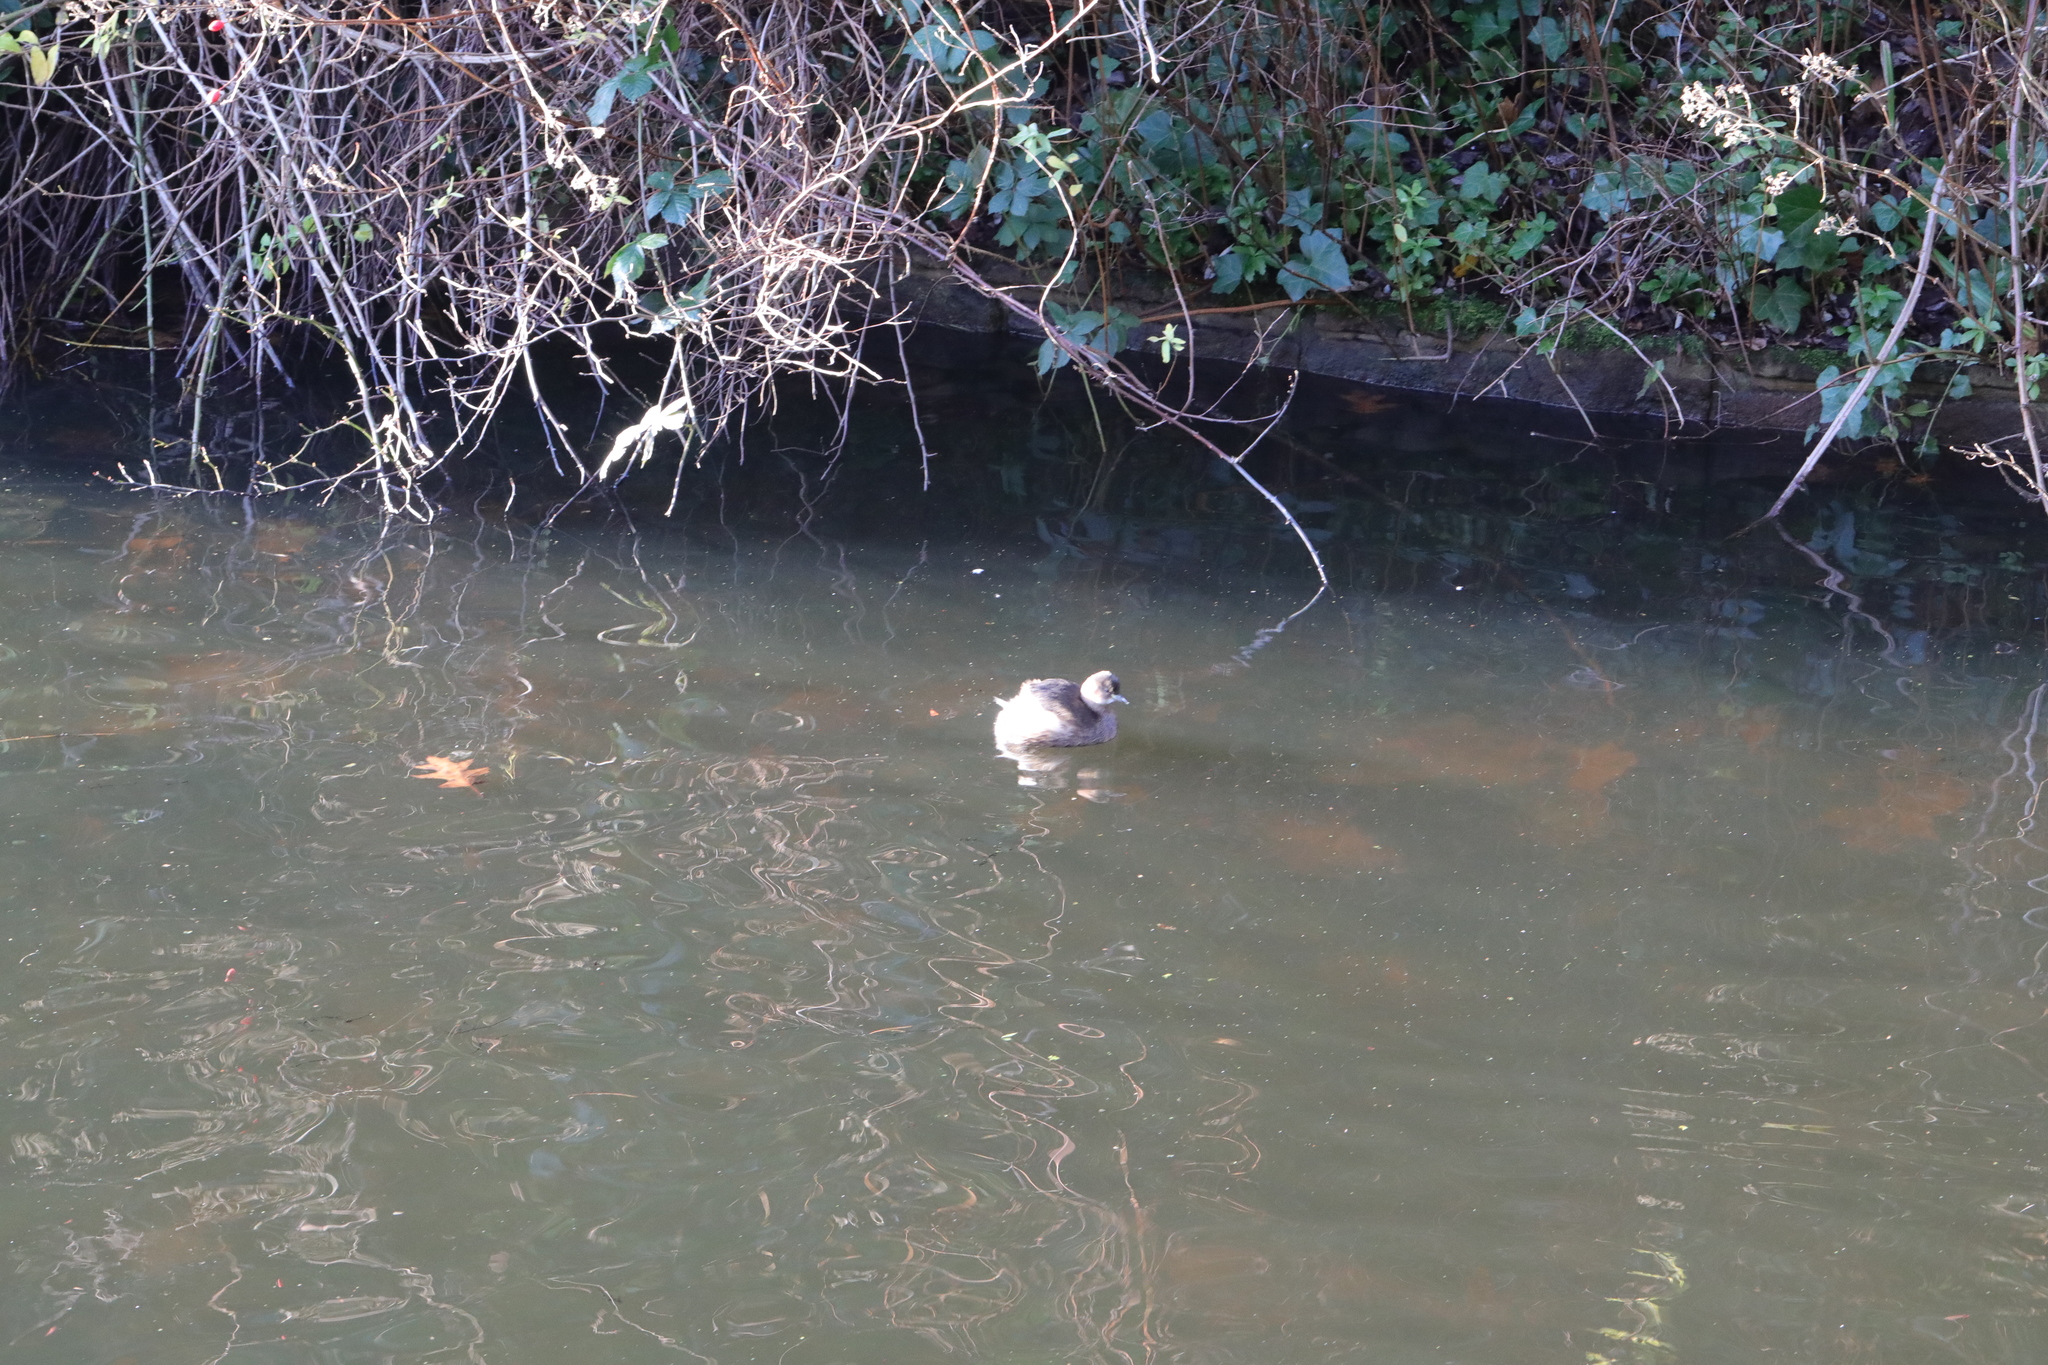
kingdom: Animalia
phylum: Chordata
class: Aves
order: Podicipediformes
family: Podicipedidae
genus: Tachybaptus
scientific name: Tachybaptus ruficollis
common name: Little grebe
